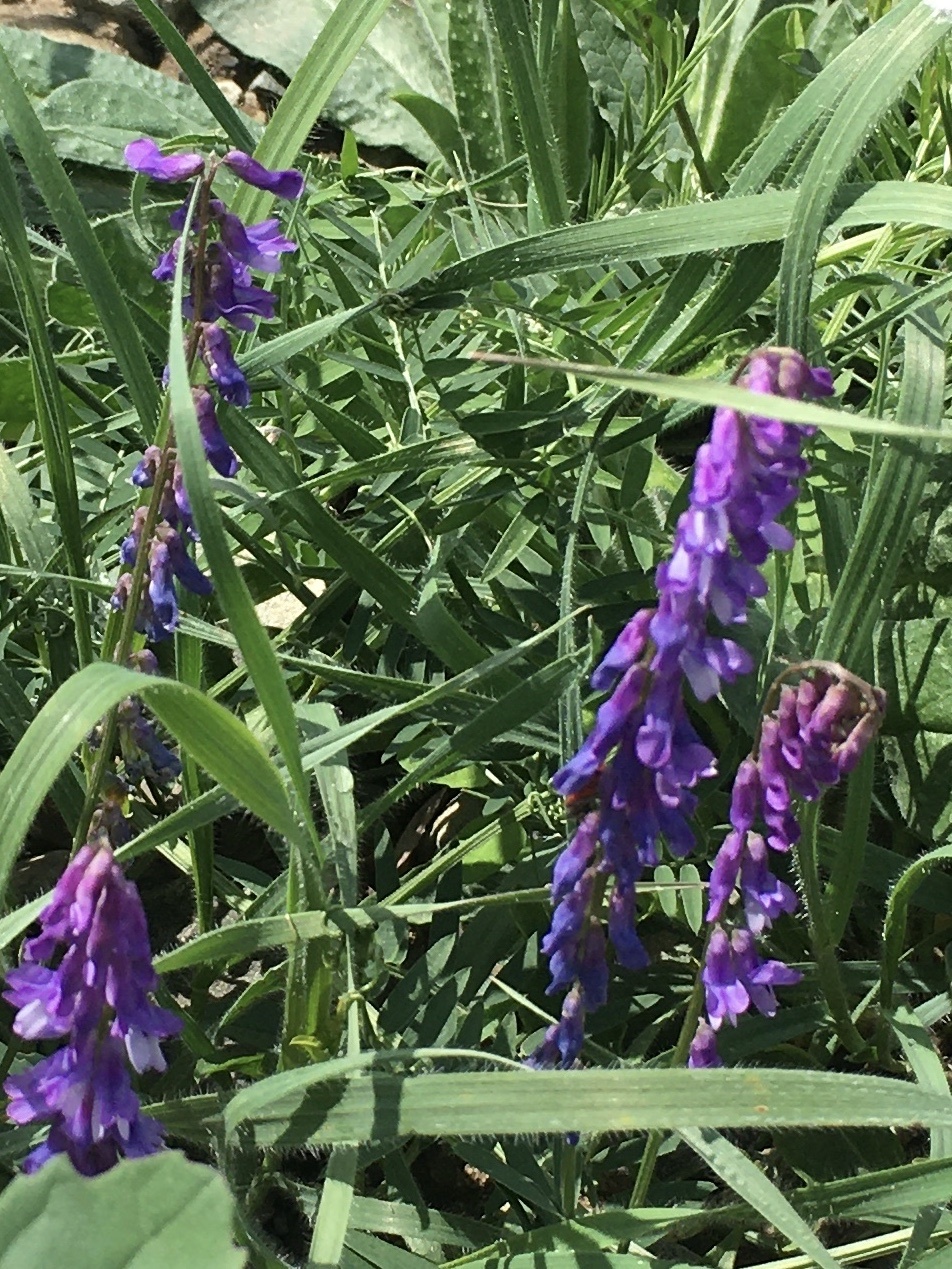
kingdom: Plantae
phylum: Tracheophyta
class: Magnoliopsida
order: Fabales
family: Fabaceae
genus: Vicia
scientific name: Vicia cracca
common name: Bird vetch
